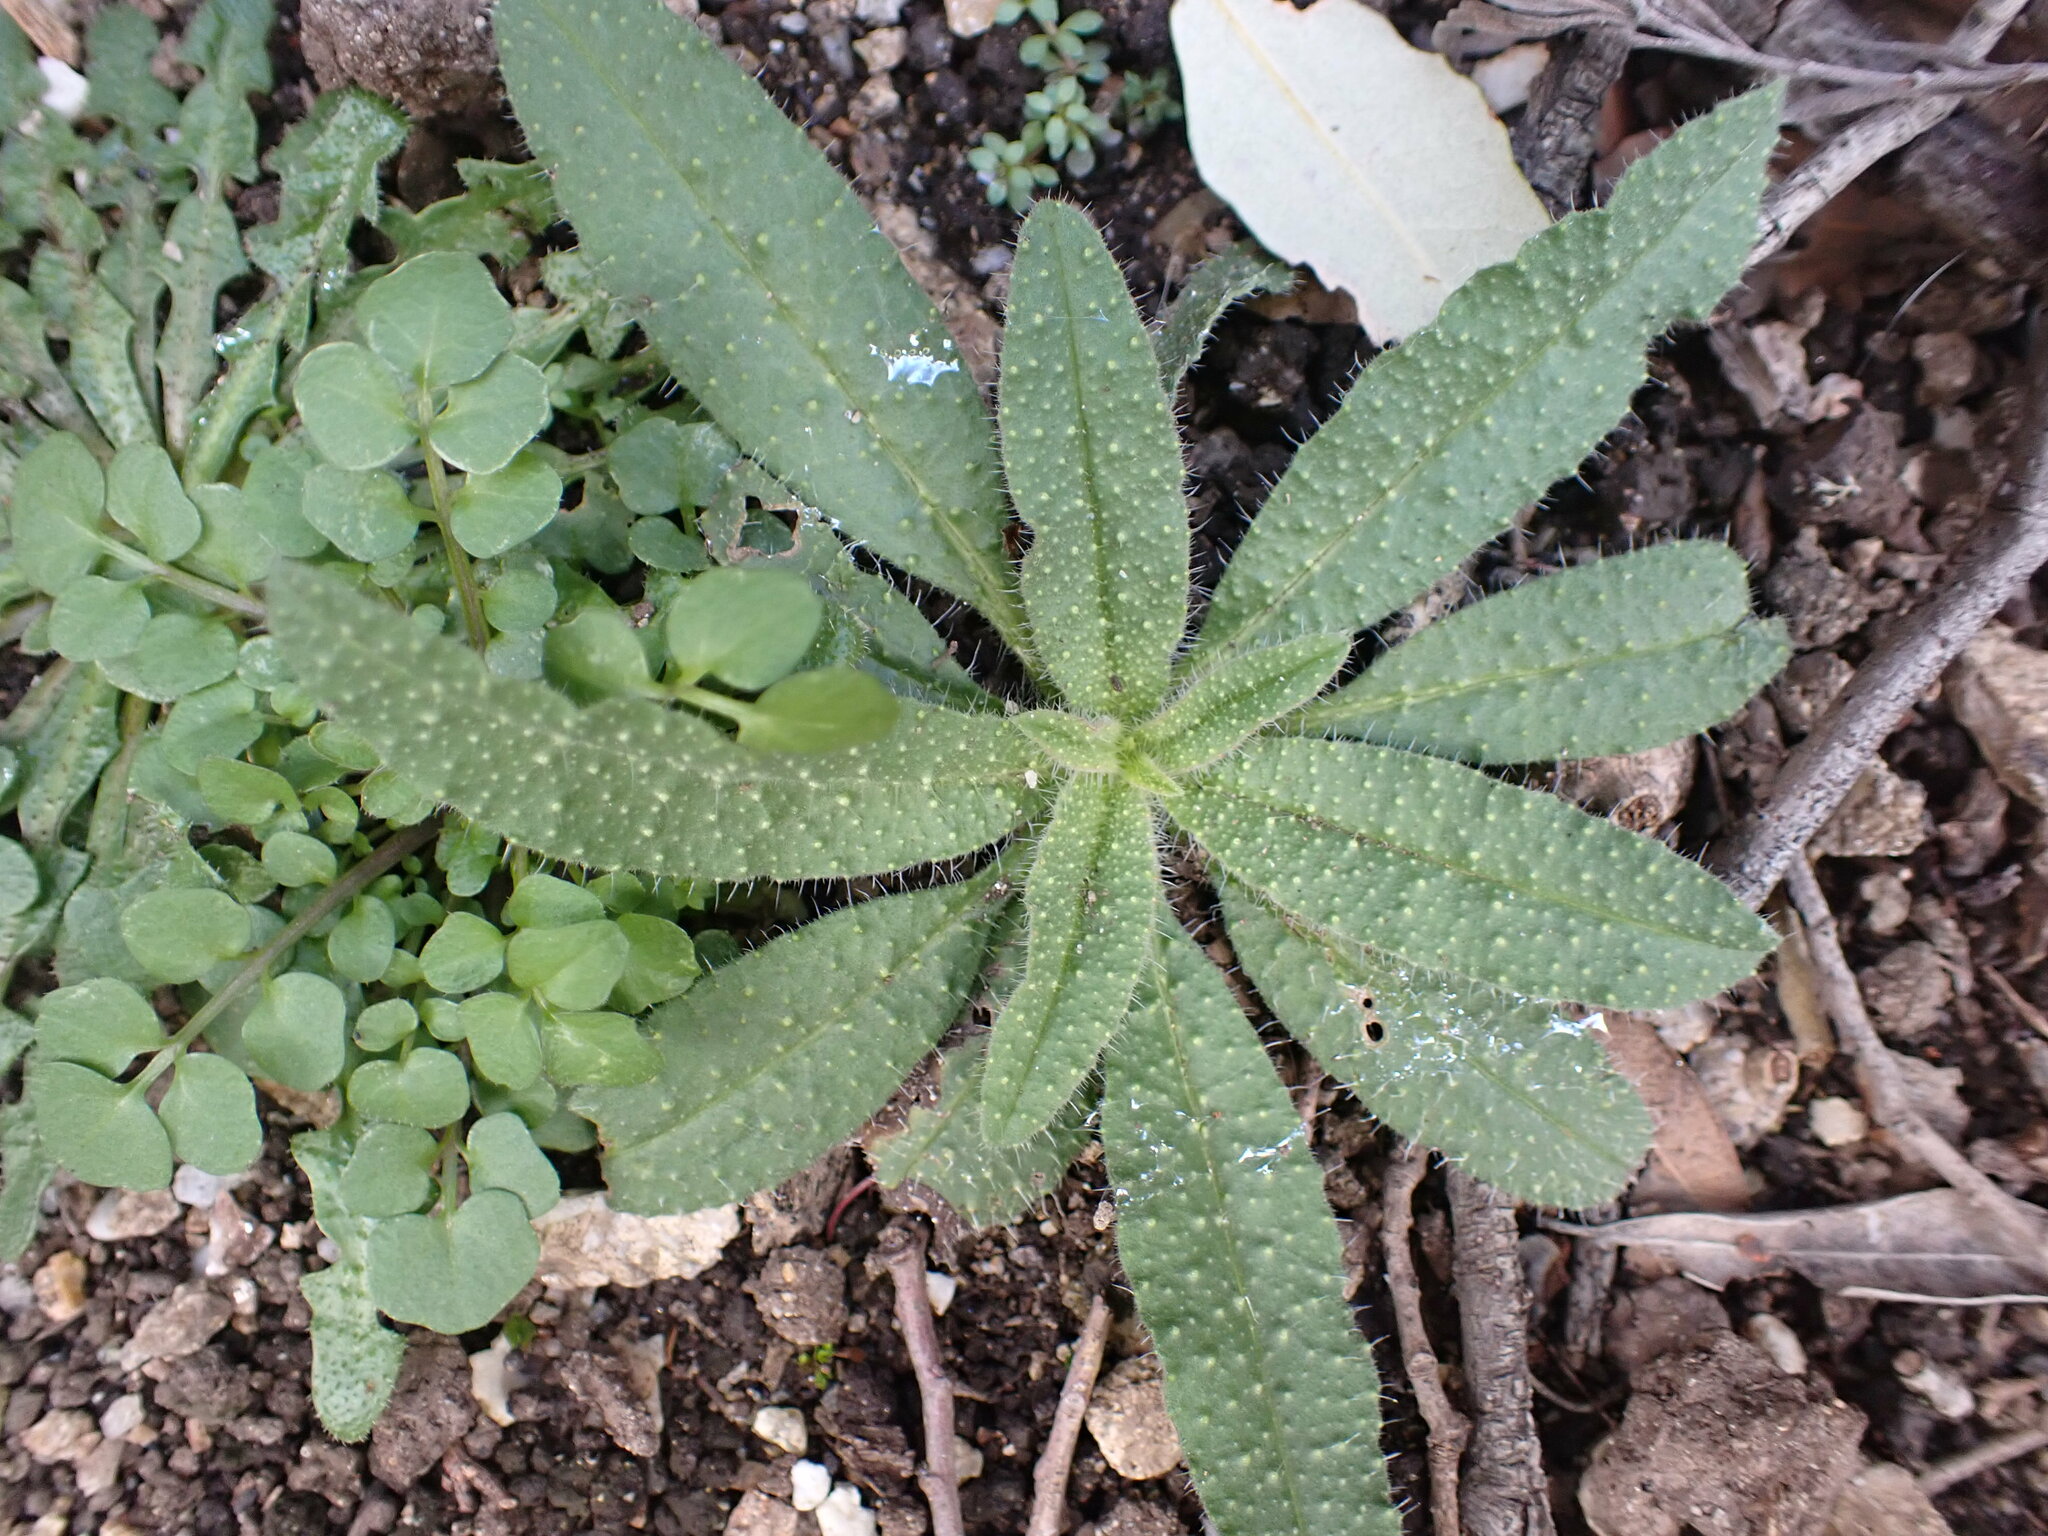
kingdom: Plantae
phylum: Tracheophyta
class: Magnoliopsida
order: Boraginales
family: Boraginaceae
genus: Echium
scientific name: Echium vulgare
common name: Common viper's bugloss
